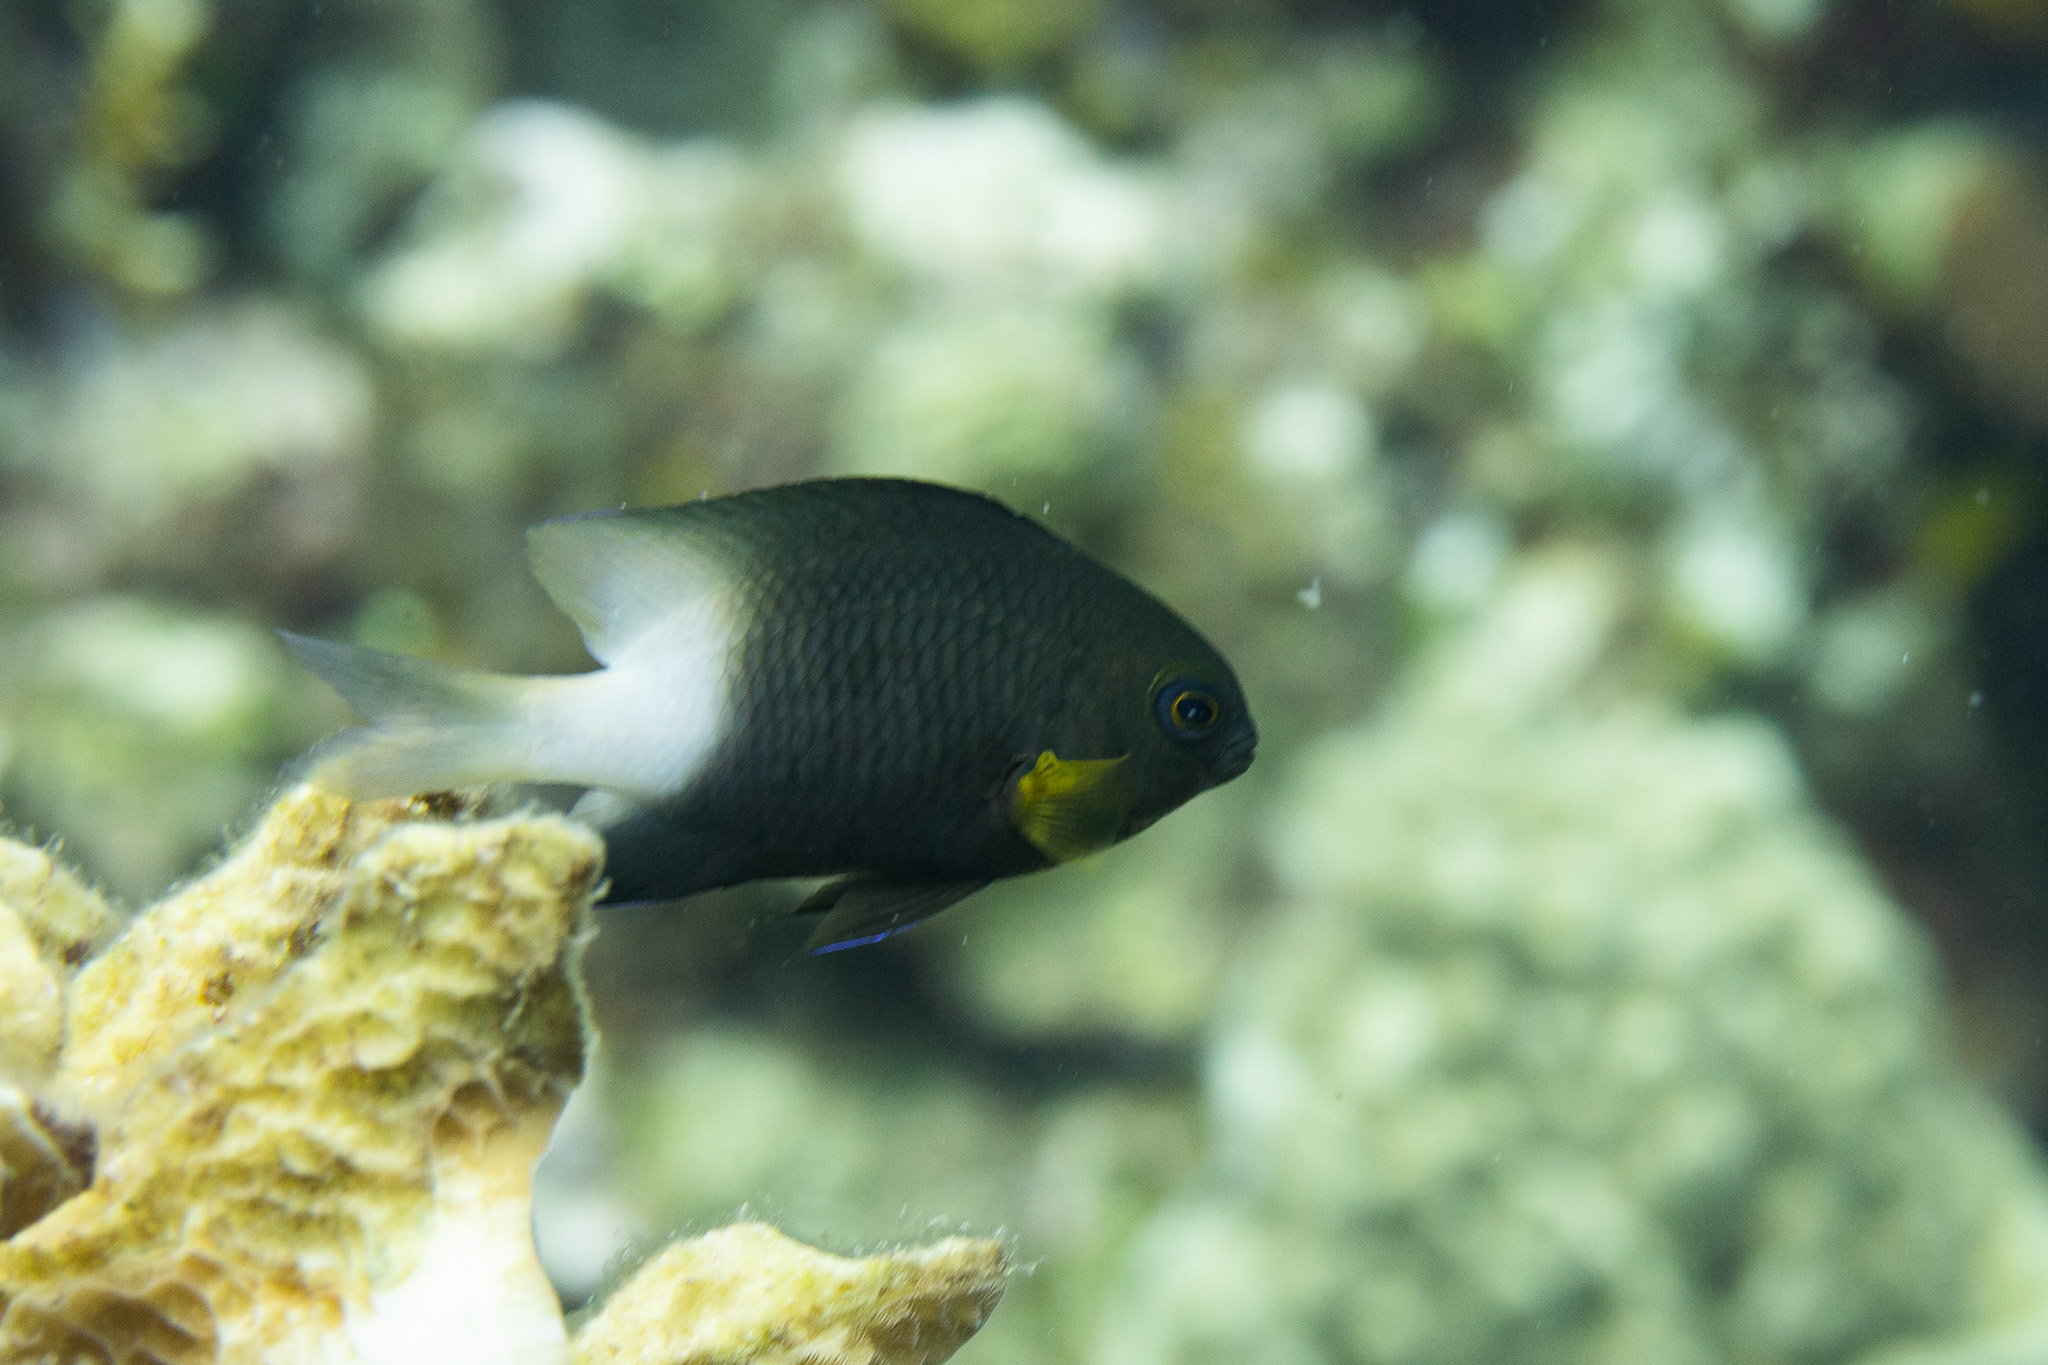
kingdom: Animalia
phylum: Chordata
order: Perciformes
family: Pomacentridae
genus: Stegastes
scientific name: Stegastes partitus
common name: Bicolor damselfish
